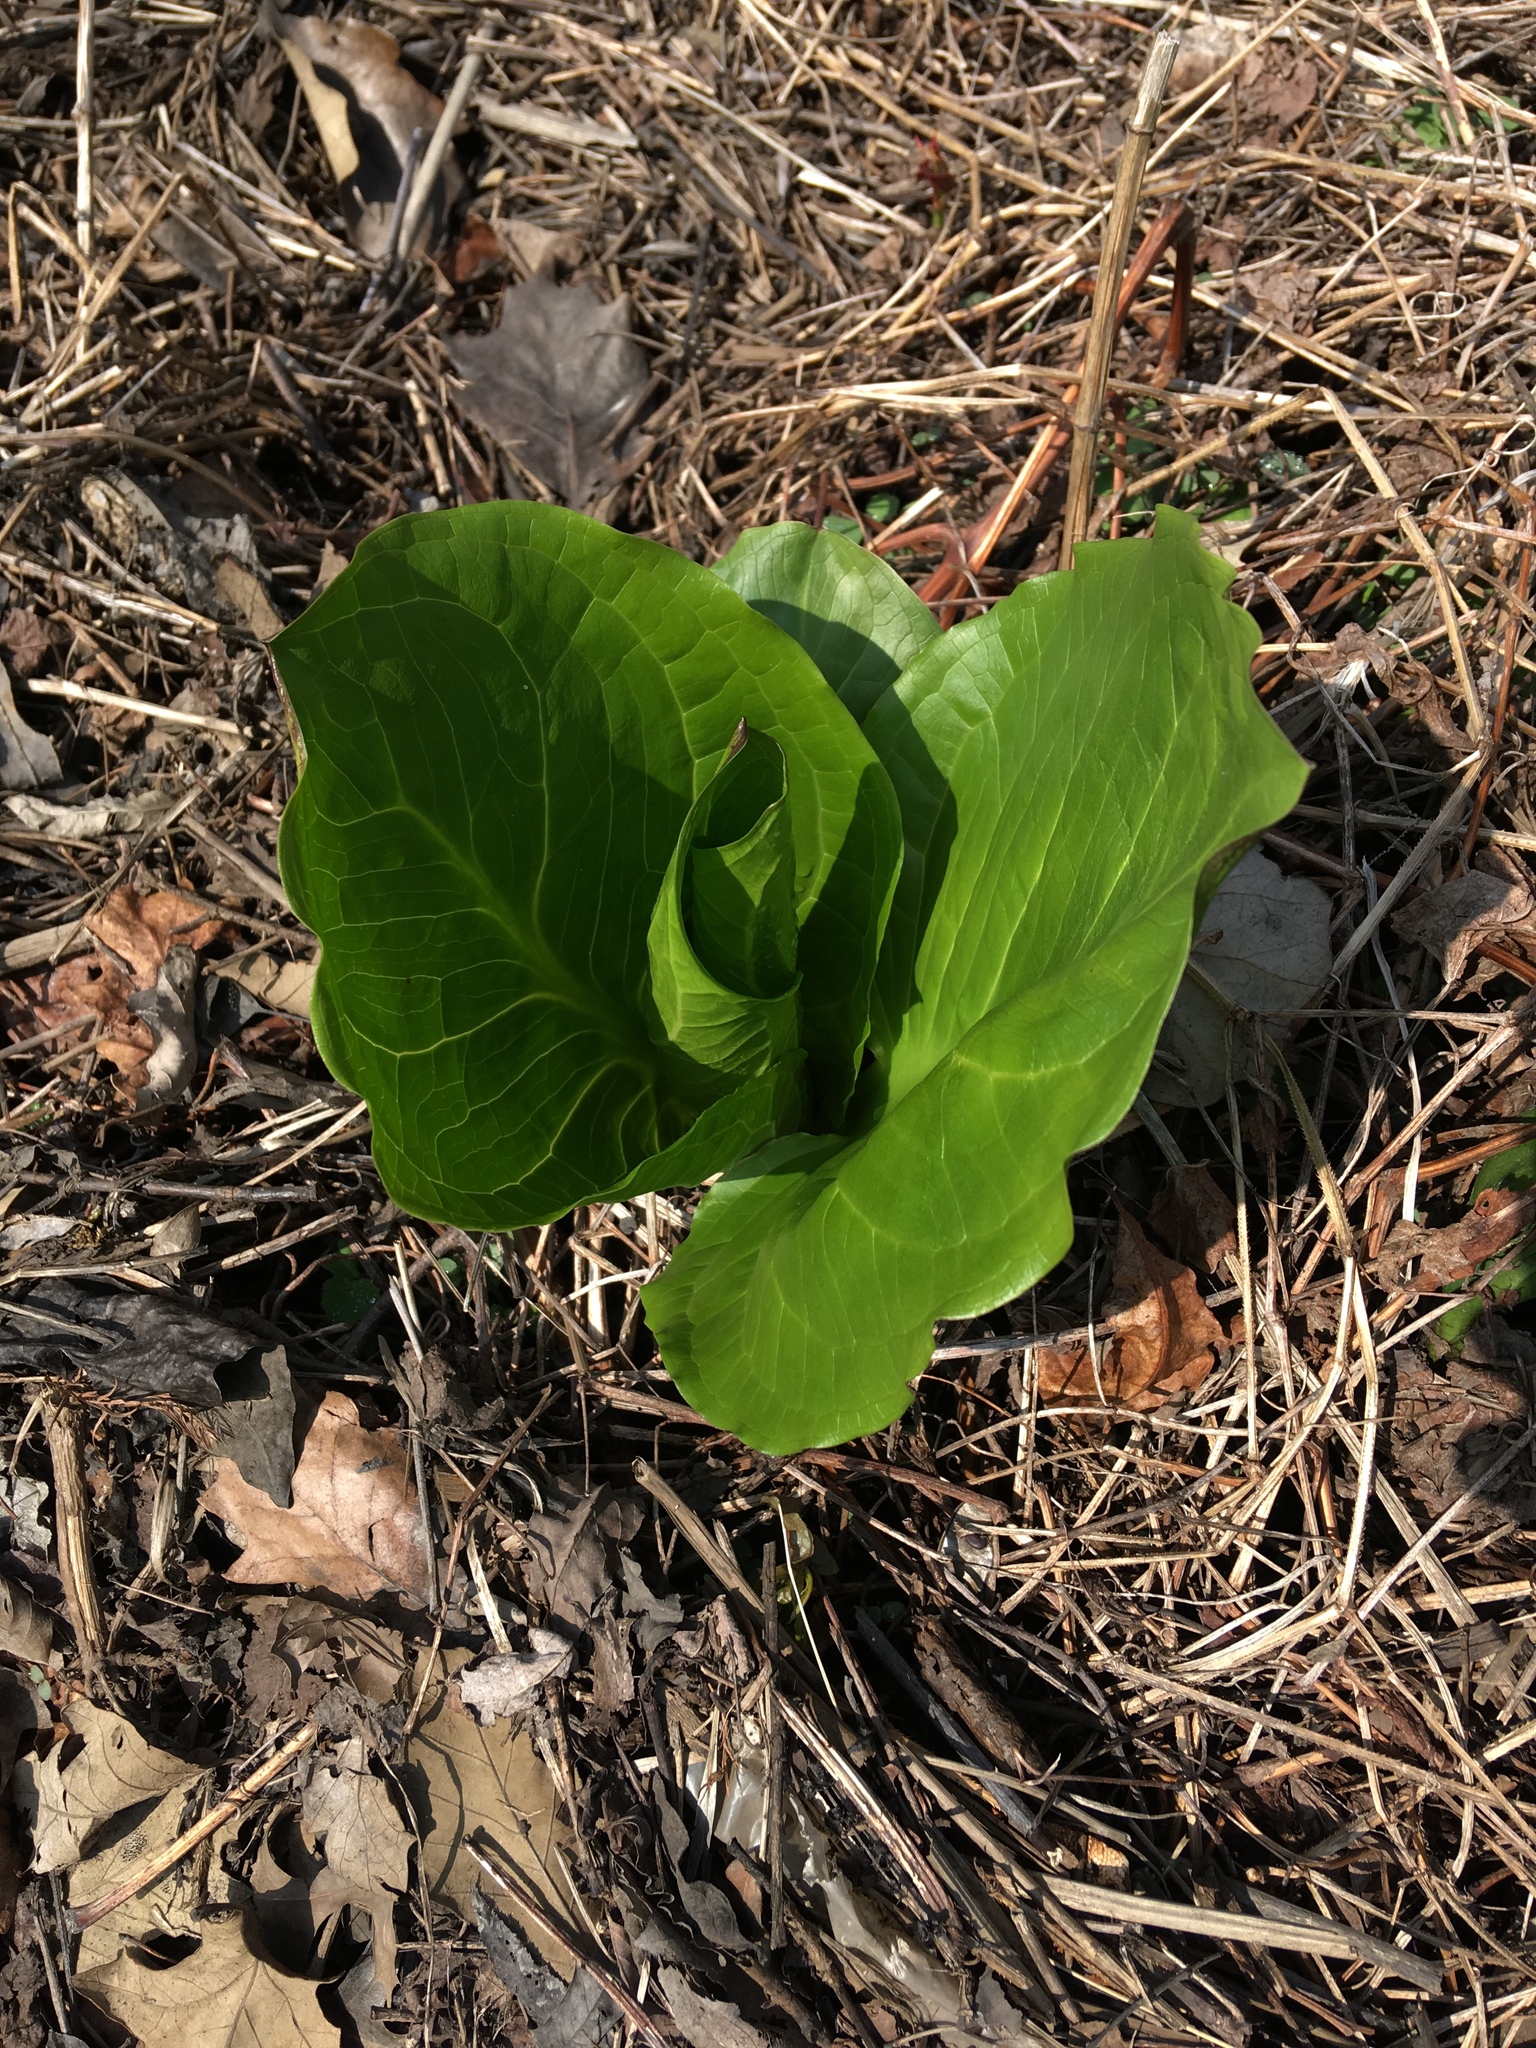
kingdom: Plantae
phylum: Tracheophyta
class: Liliopsida
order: Alismatales
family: Araceae
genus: Symplocarpus
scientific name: Symplocarpus foetidus
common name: Eastern skunk cabbage
